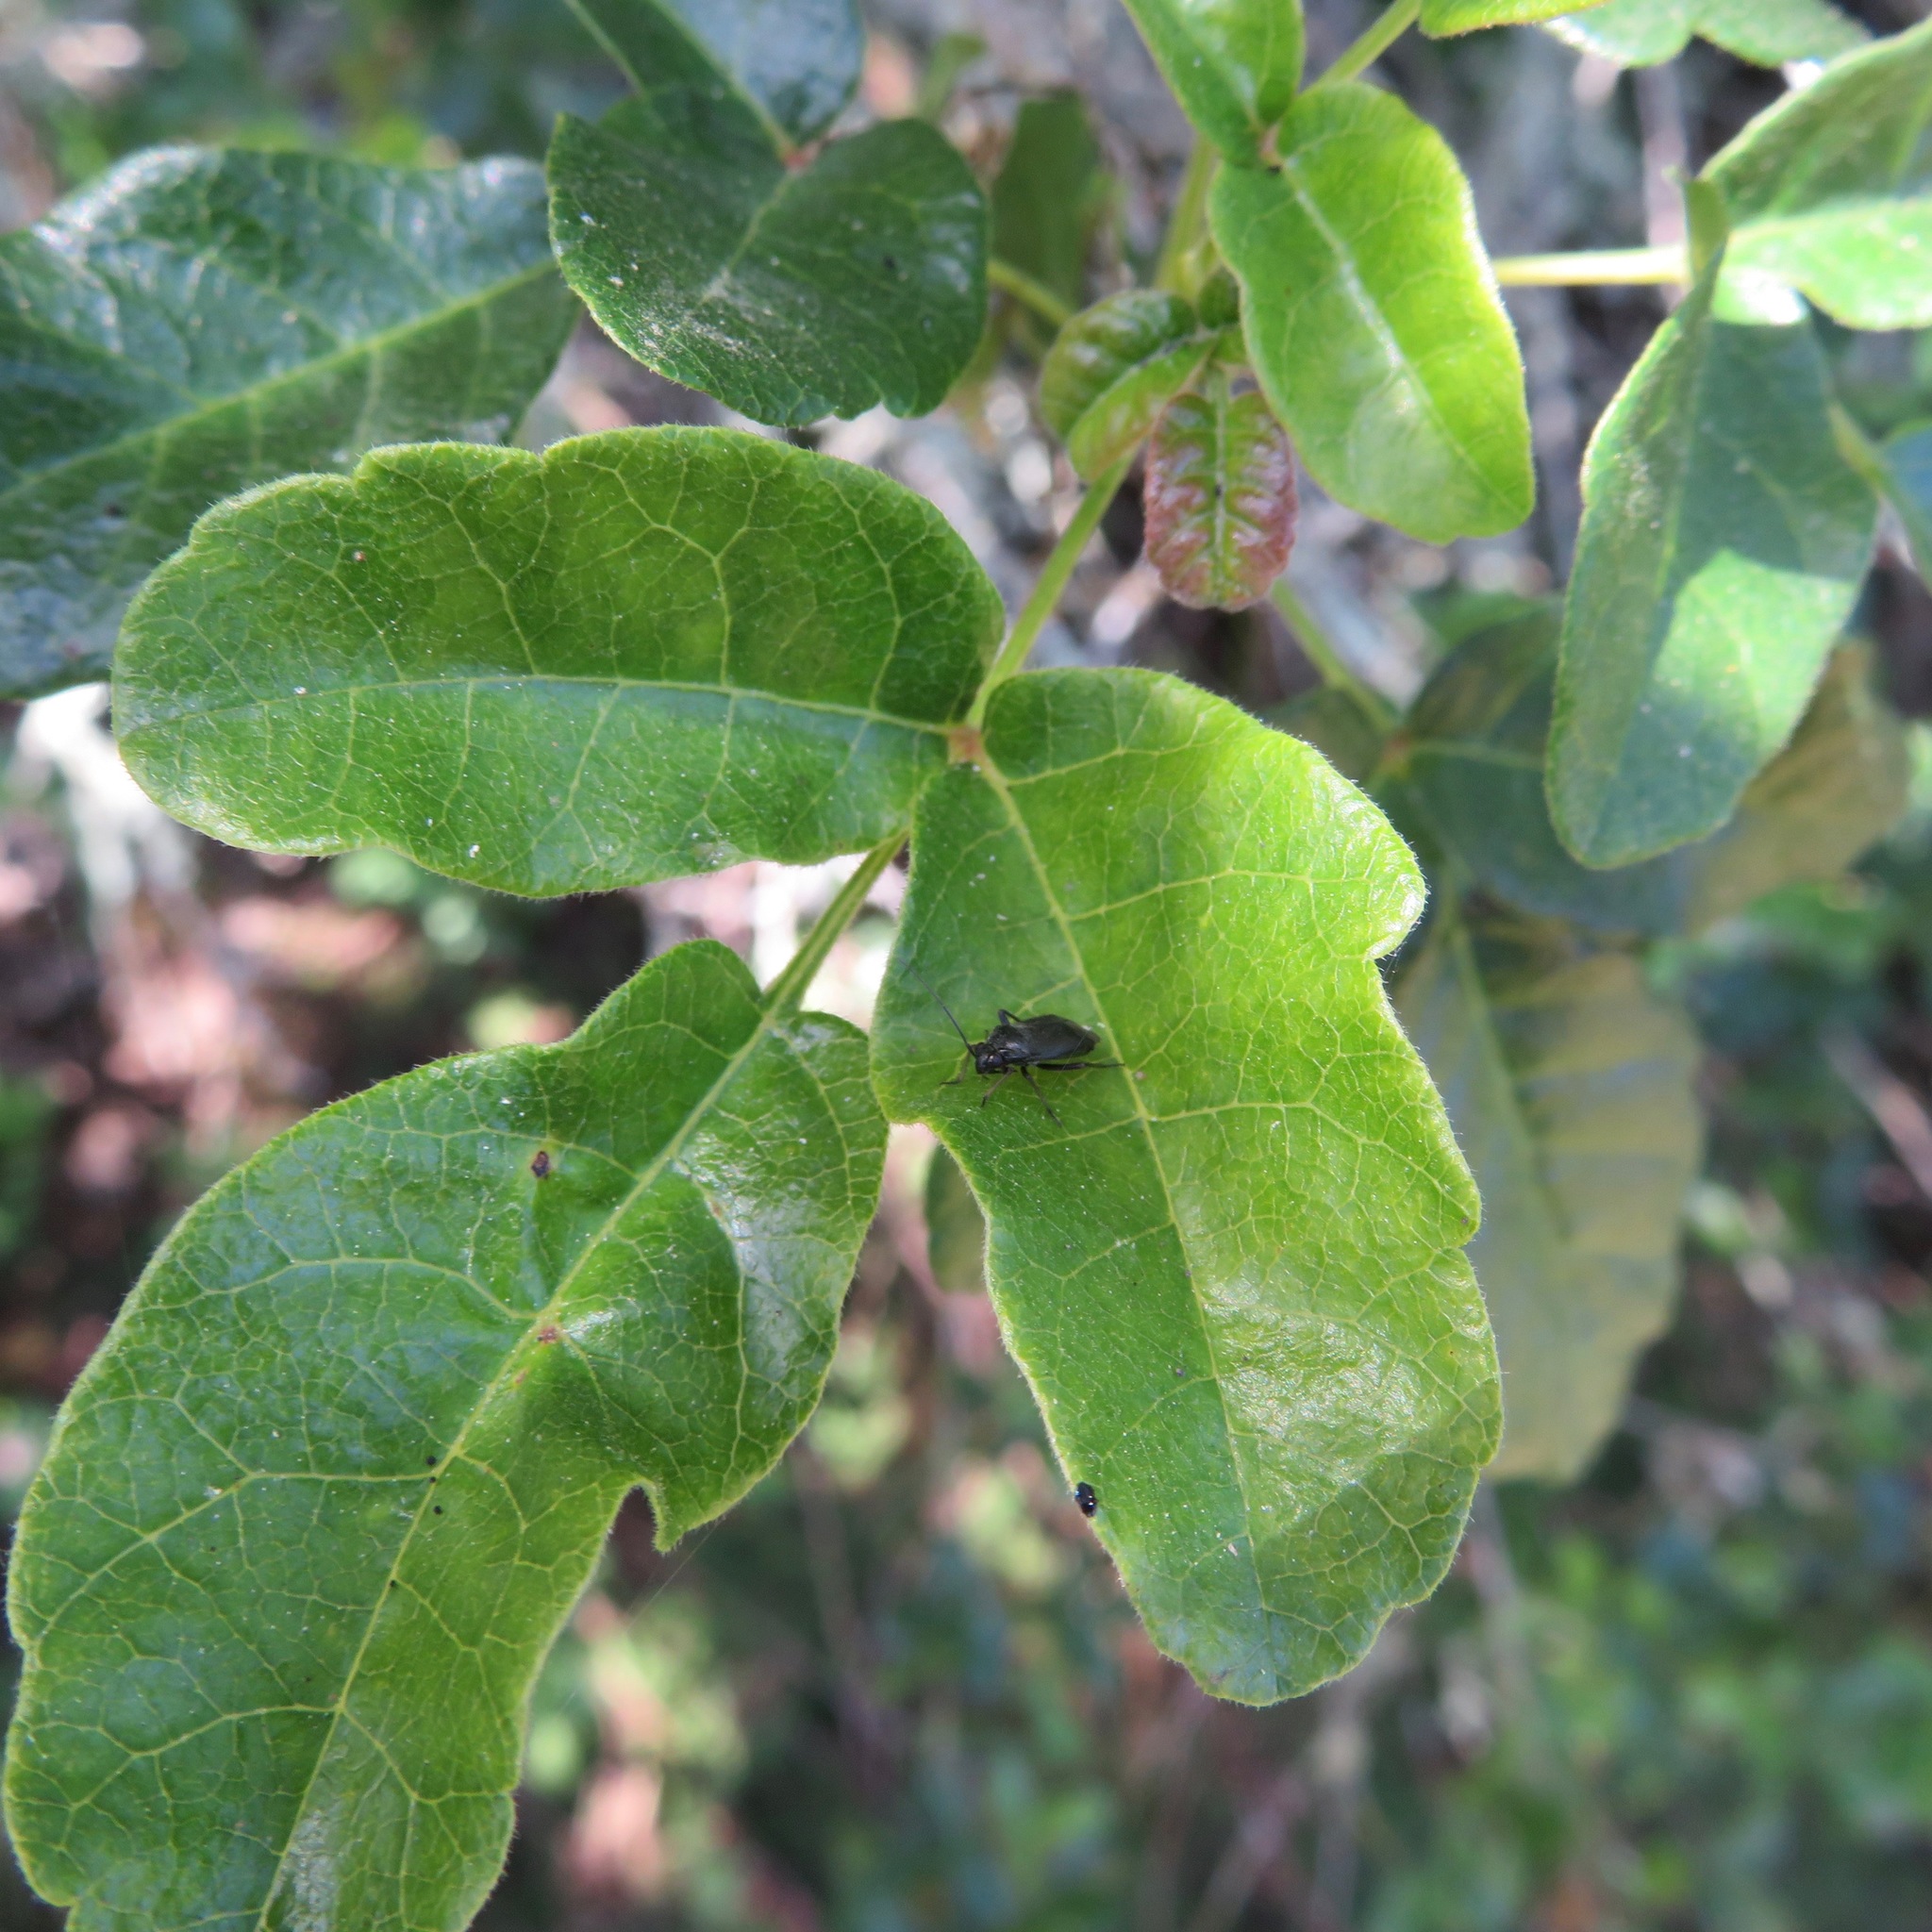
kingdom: Plantae
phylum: Tracheophyta
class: Magnoliopsida
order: Sapindales
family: Anacardiaceae
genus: Toxicodendron
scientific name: Toxicodendron diversilobum
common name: Pacific poison-oak
